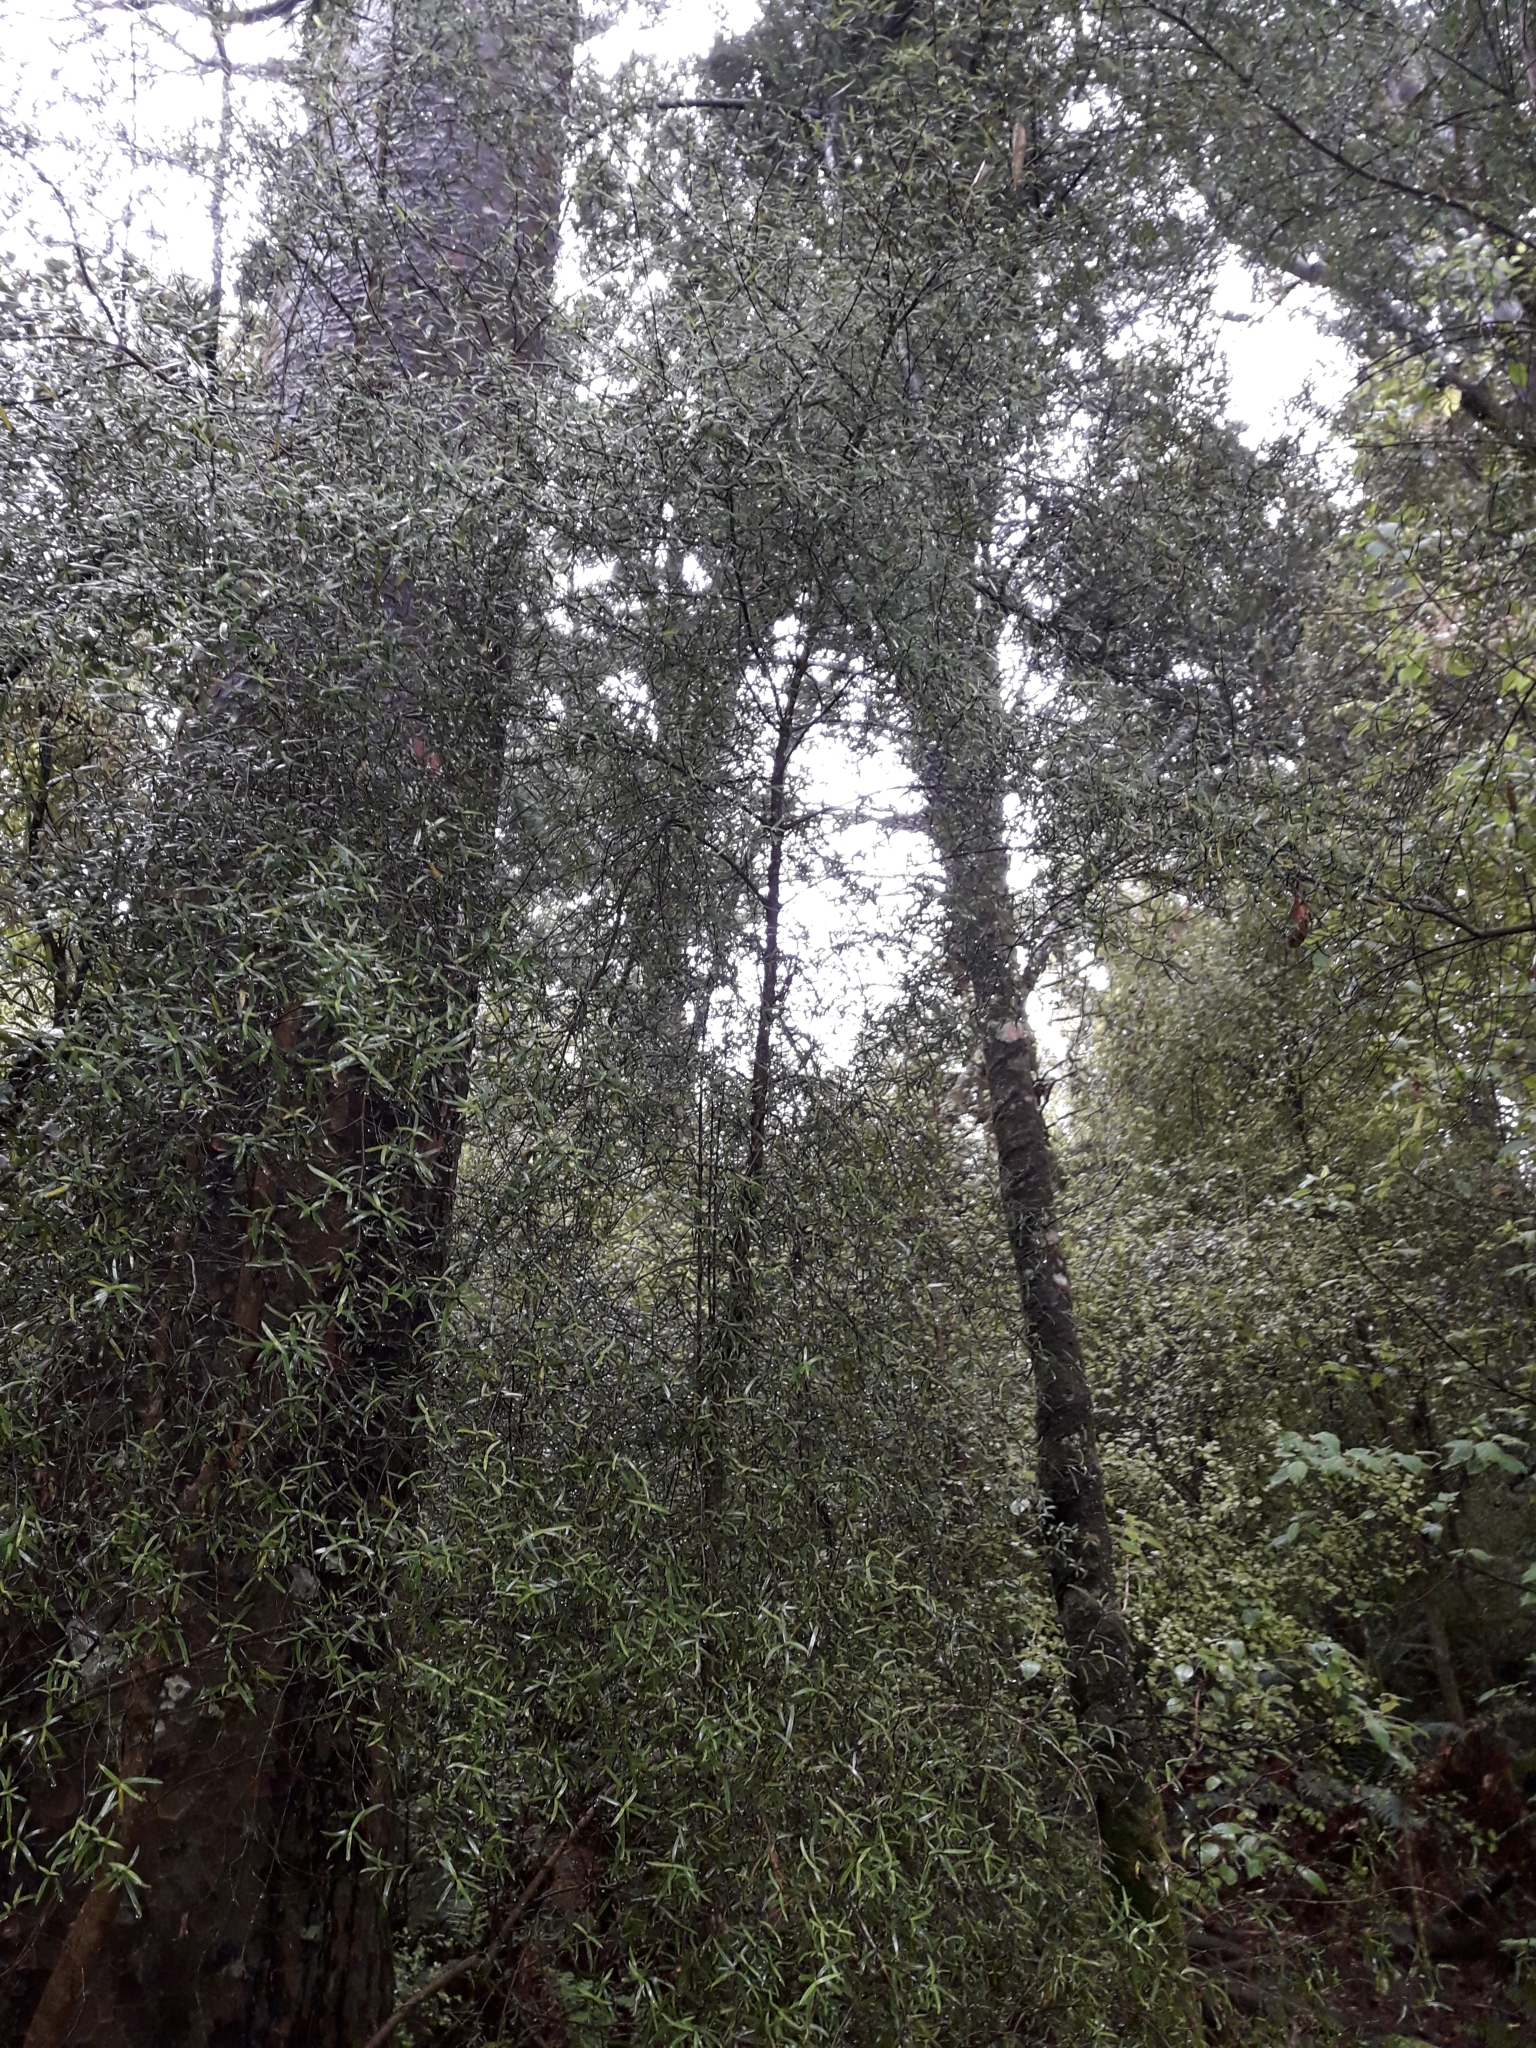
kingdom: Plantae
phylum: Tracheophyta
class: Magnoliopsida
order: Gentianales
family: Rubiaceae
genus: Coprosma
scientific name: Coprosma linariifolia
